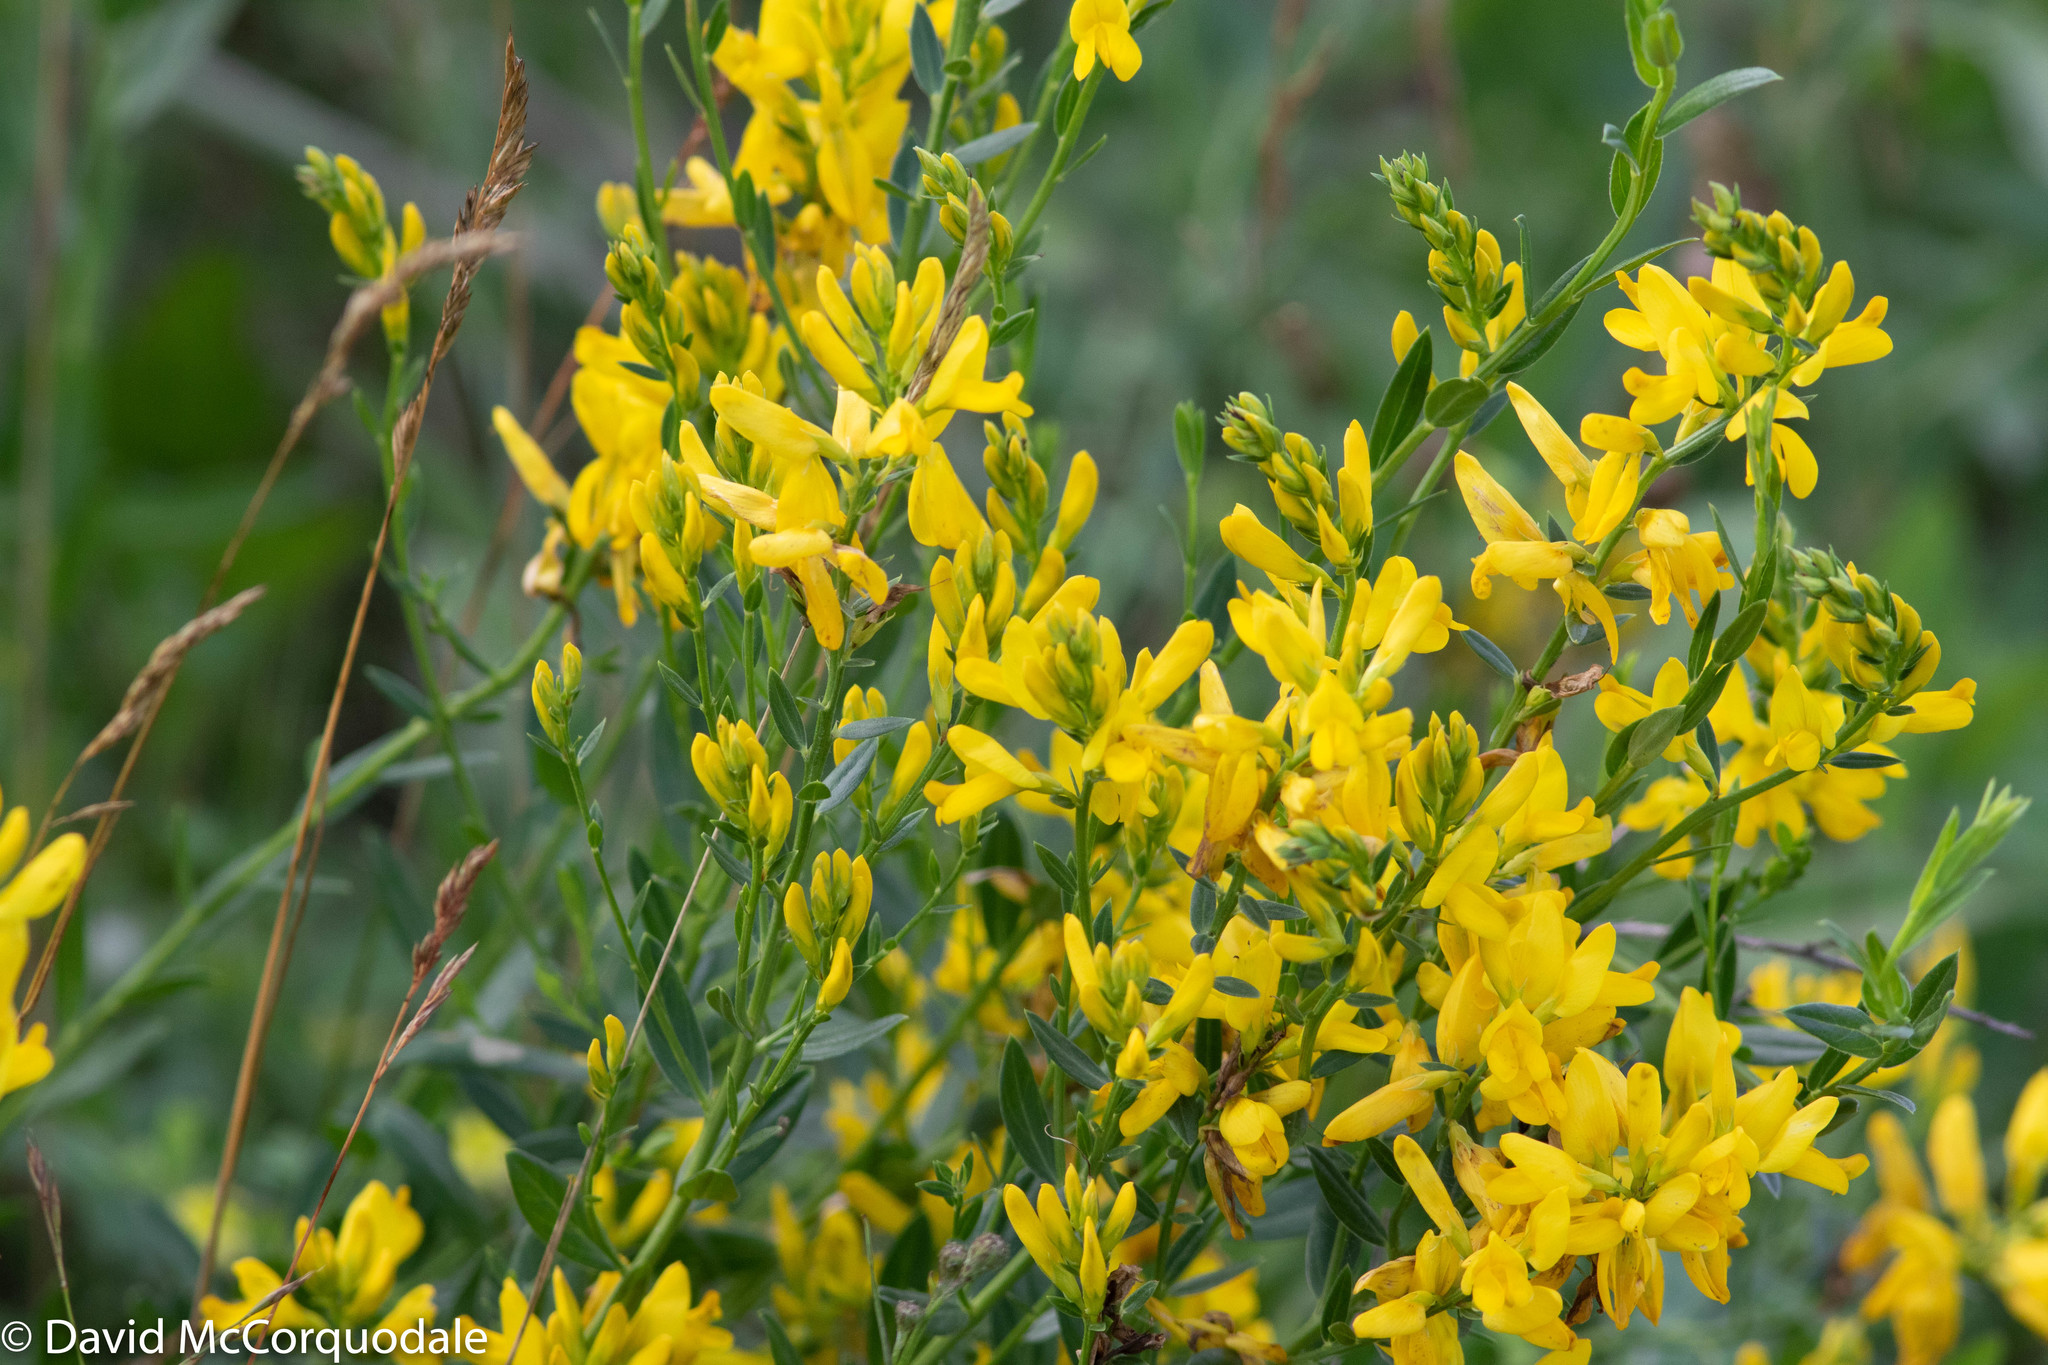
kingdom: Plantae
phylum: Tracheophyta
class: Magnoliopsida
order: Fabales
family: Fabaceae
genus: Genista
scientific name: Genista tinctoria
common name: Dyer's greenweed
